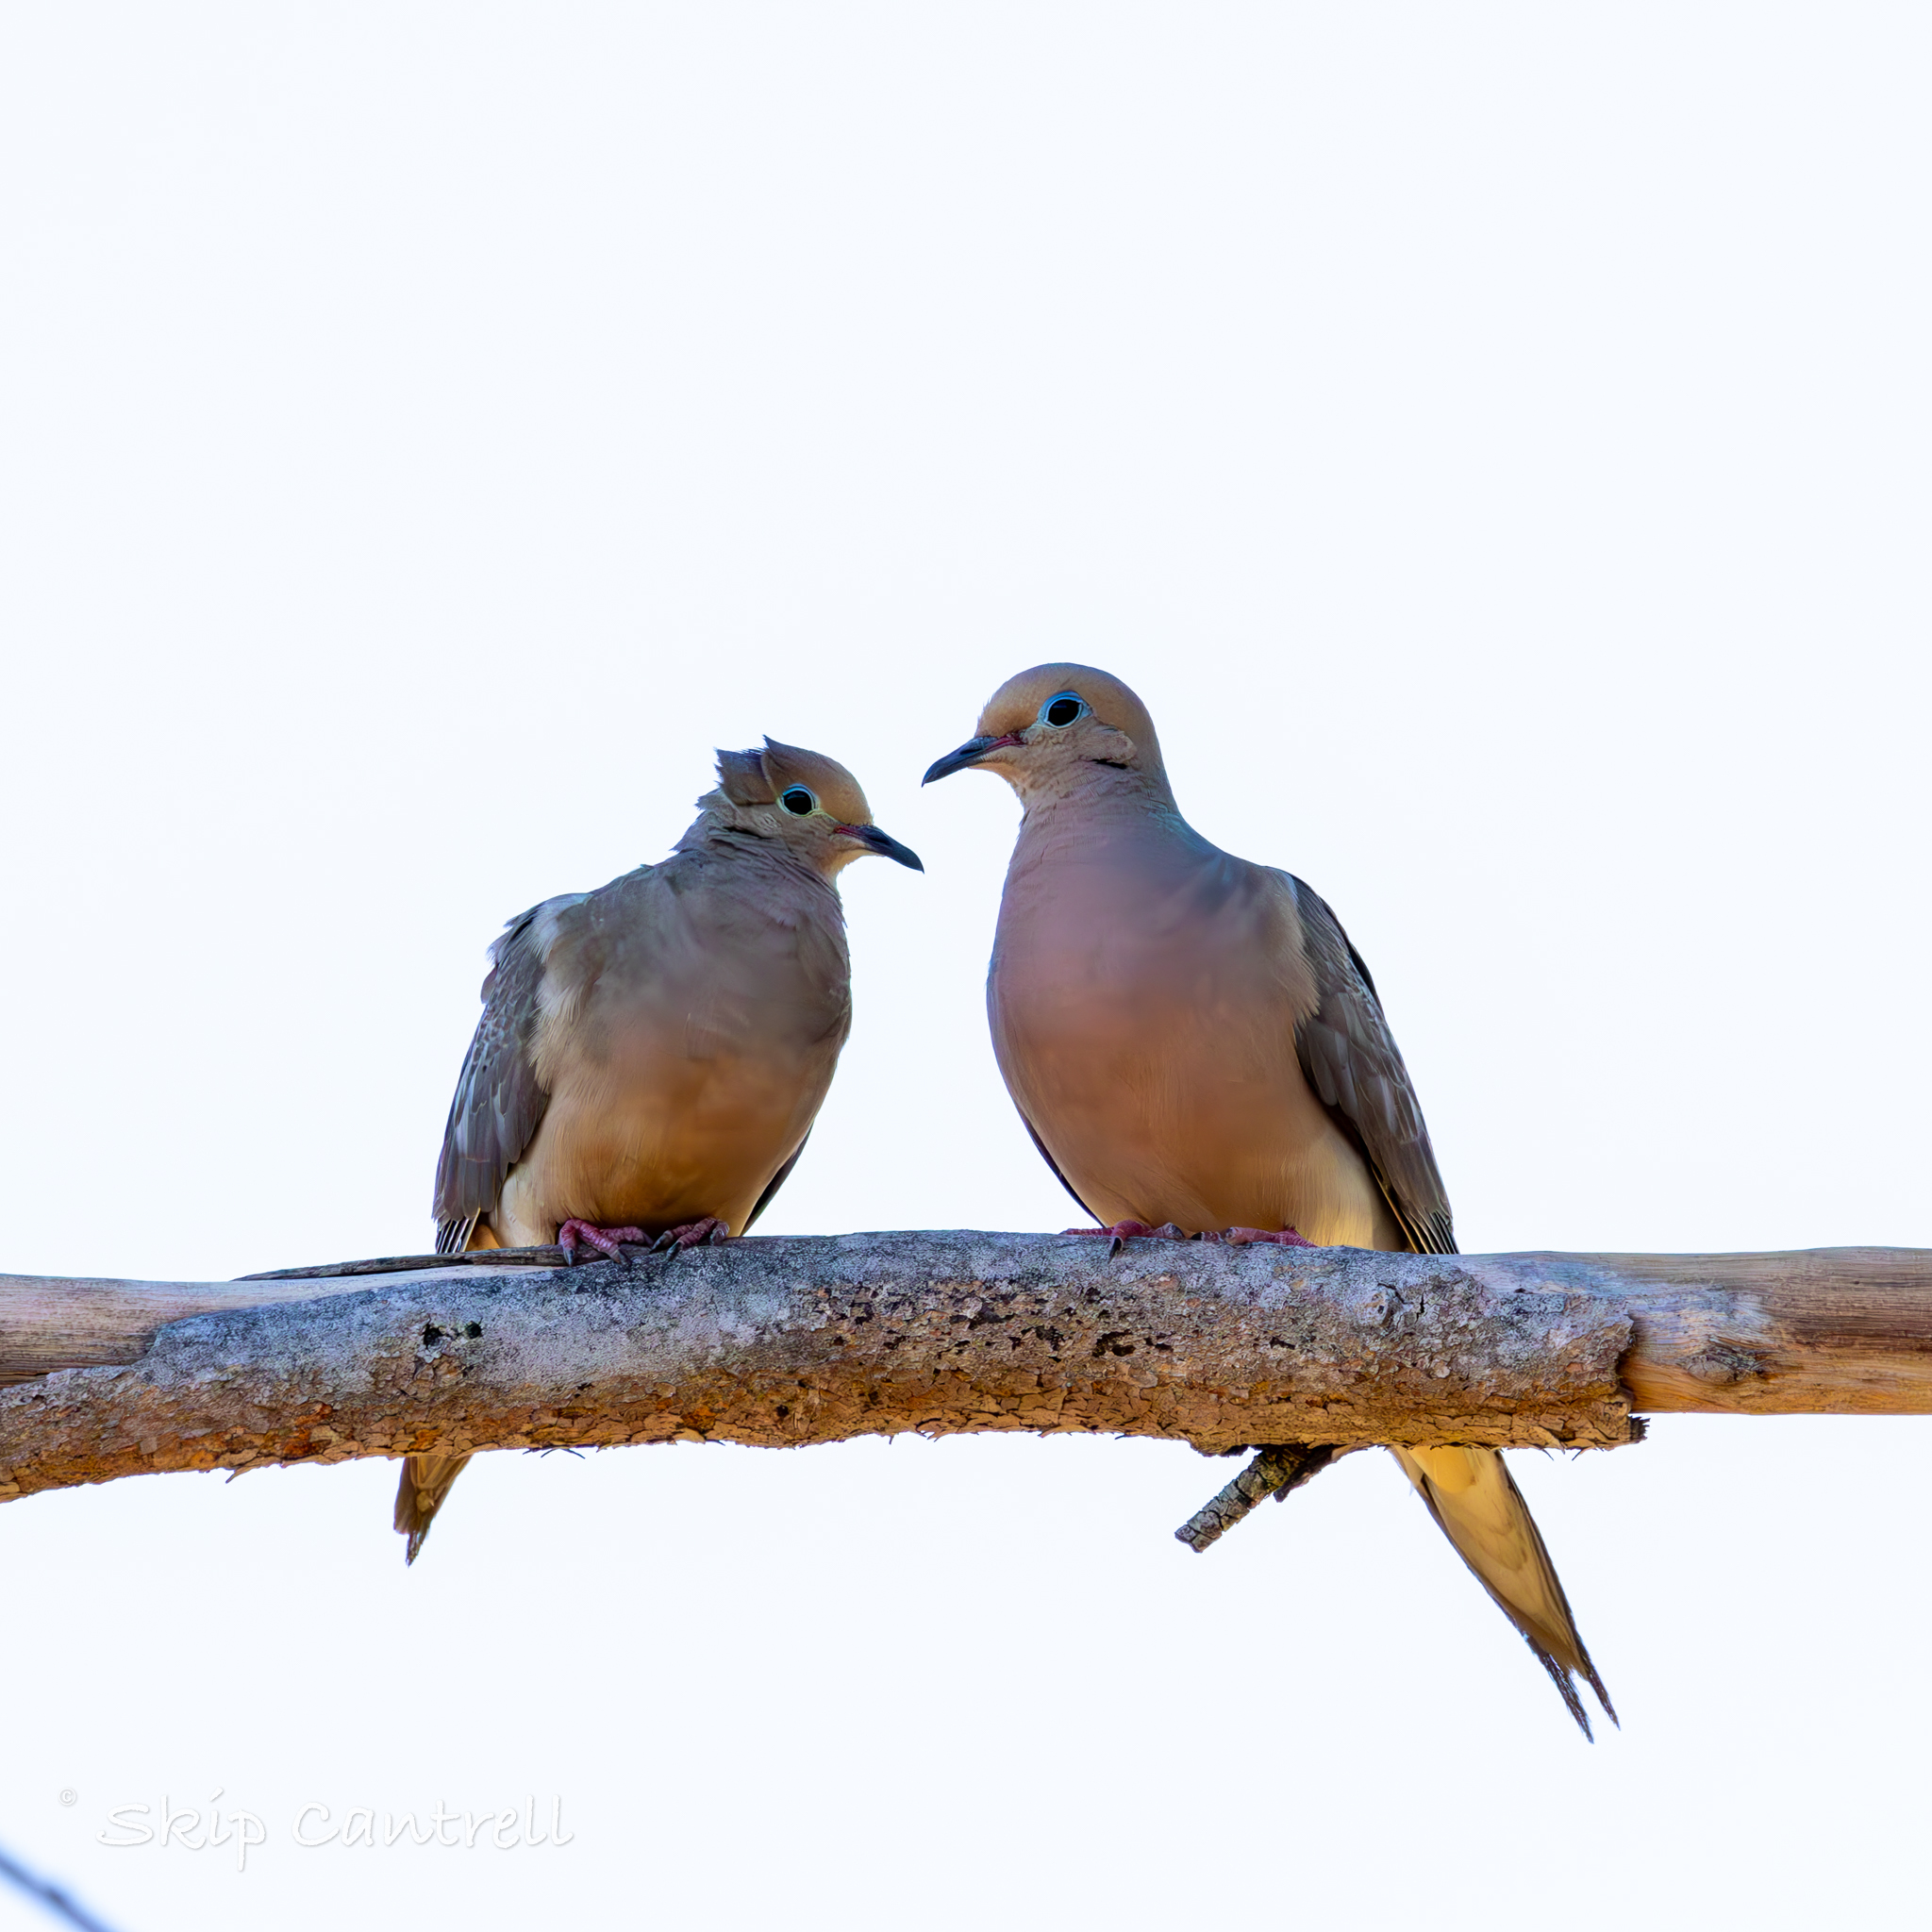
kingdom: Animalia
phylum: Chordata
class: Aves
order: Columbiformes
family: Columbidae
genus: Zenaida
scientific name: Zenaida macroura
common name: Mourning dove
